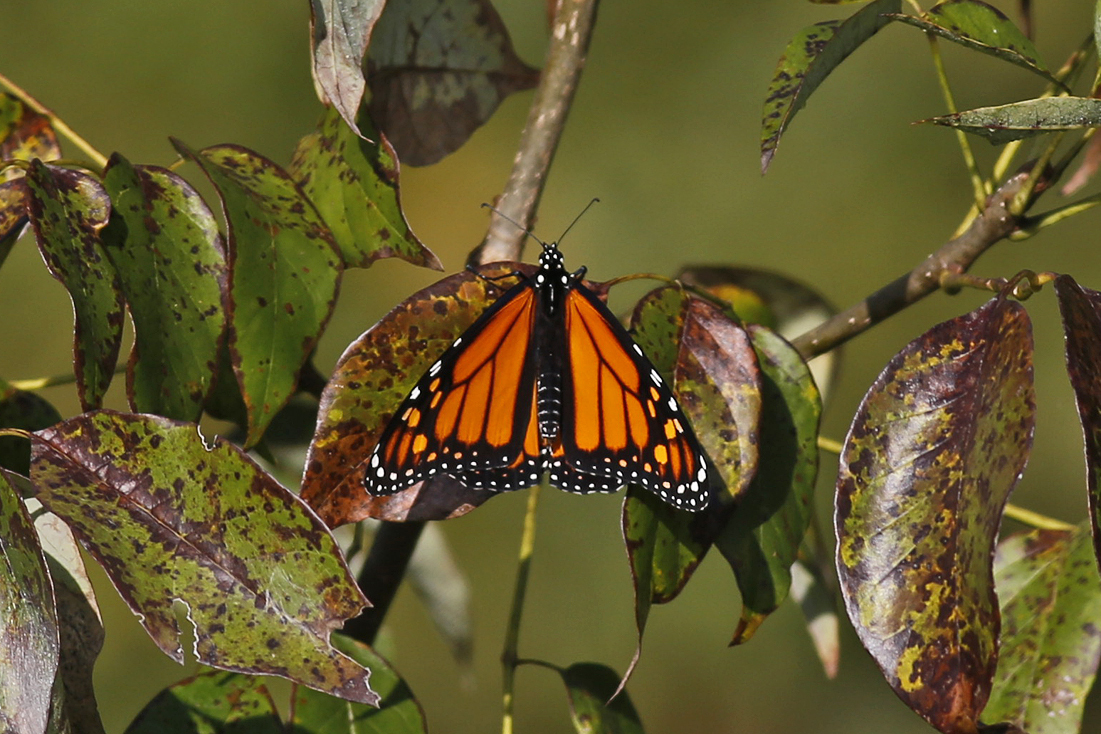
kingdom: Animalia
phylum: Arthropoda
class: Insecta
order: Lepidoptera
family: Nymphalidae
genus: Danaus
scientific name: Danaus plexippus
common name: Monarch
